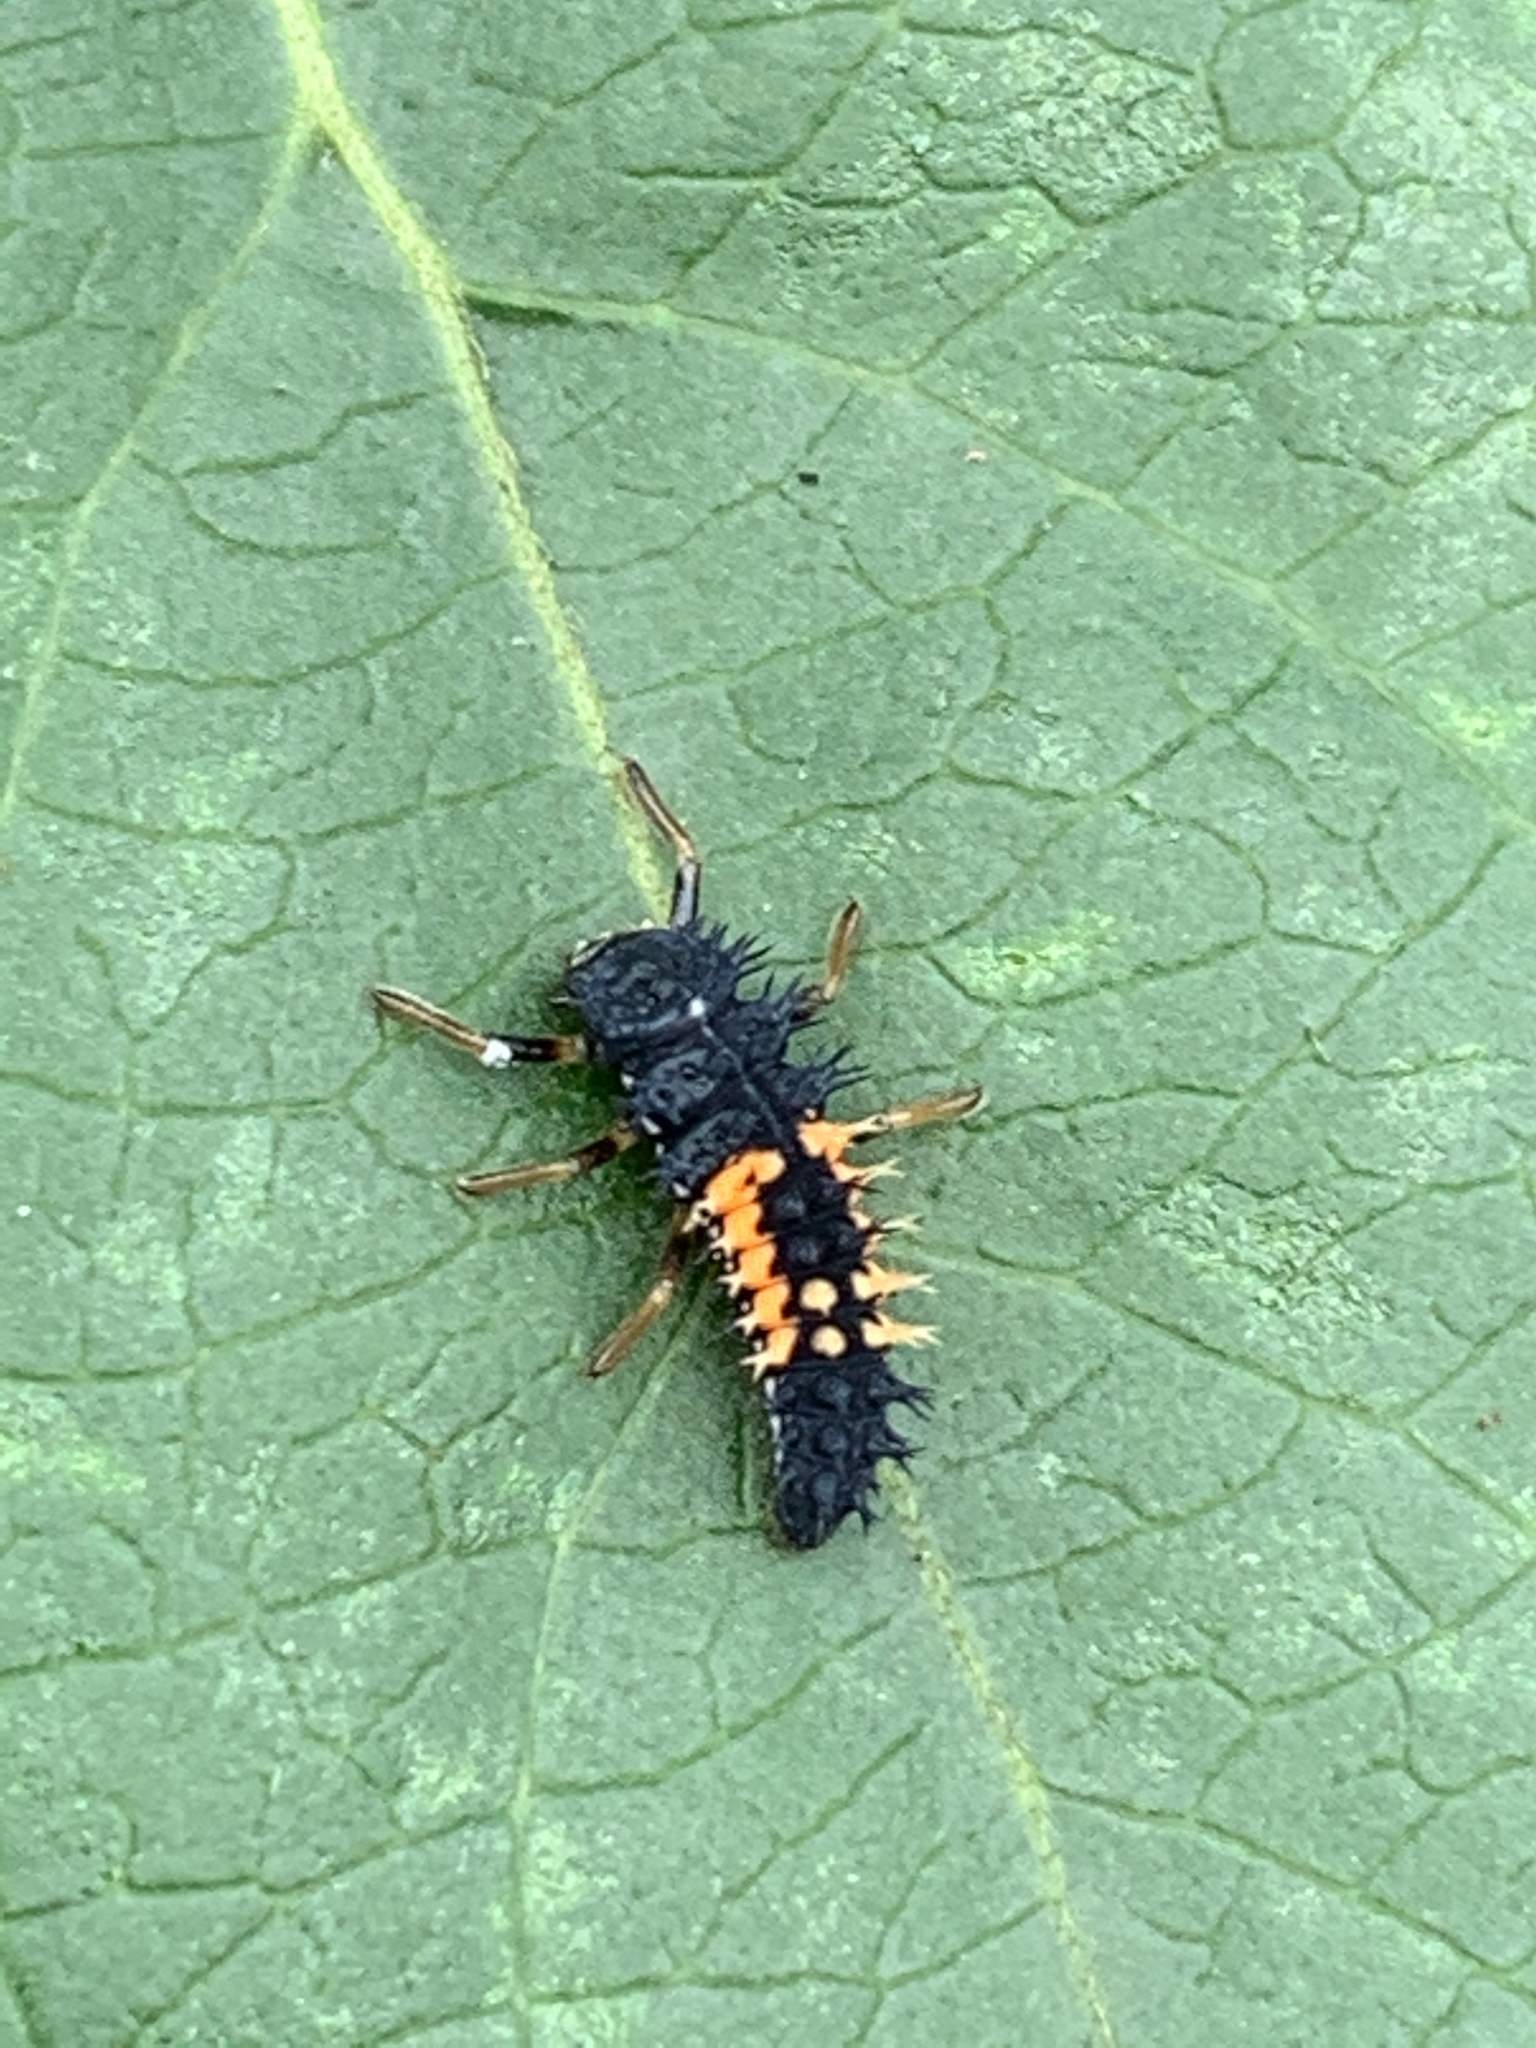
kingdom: Animalia
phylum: Arthropoda
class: Insecta
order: Coleoptera
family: Coccinellidae
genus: Harmonia
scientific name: Harmonia axyridis
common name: Harlequin ladybird
